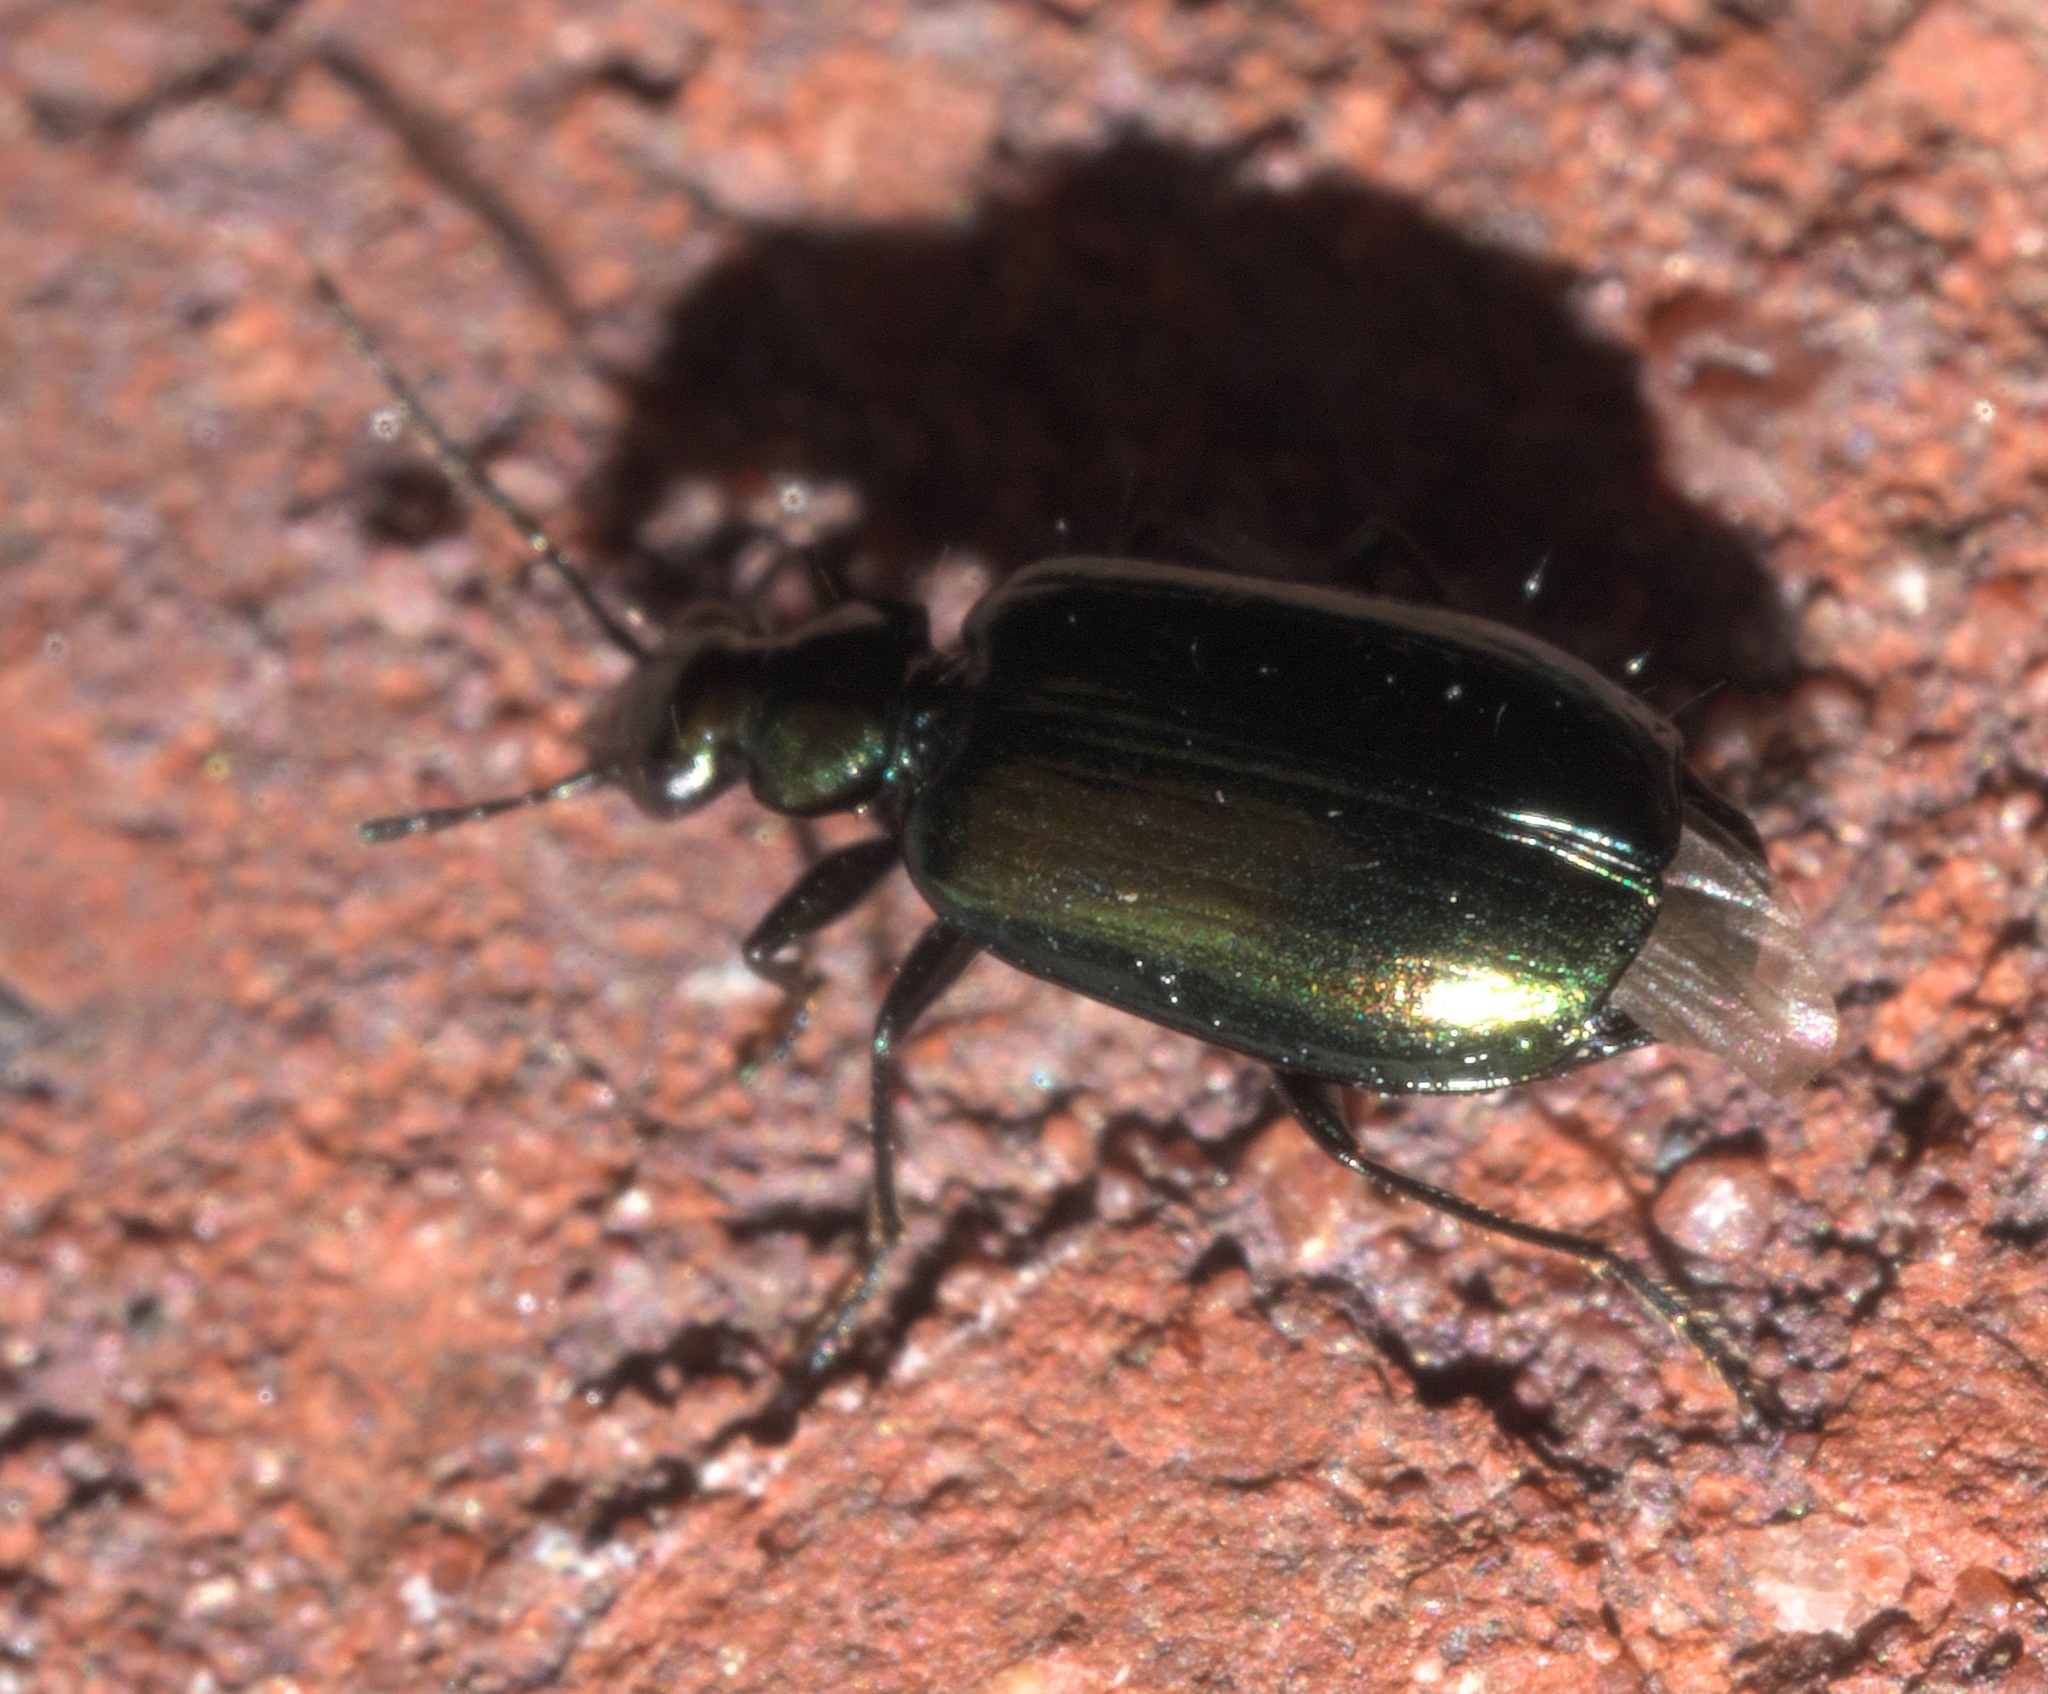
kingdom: Animalia
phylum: Arthropoda
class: Insecta
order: Coleoptera
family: Carabidae
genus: Lebia
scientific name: Lebia viridis
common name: Flower lebia beetle
